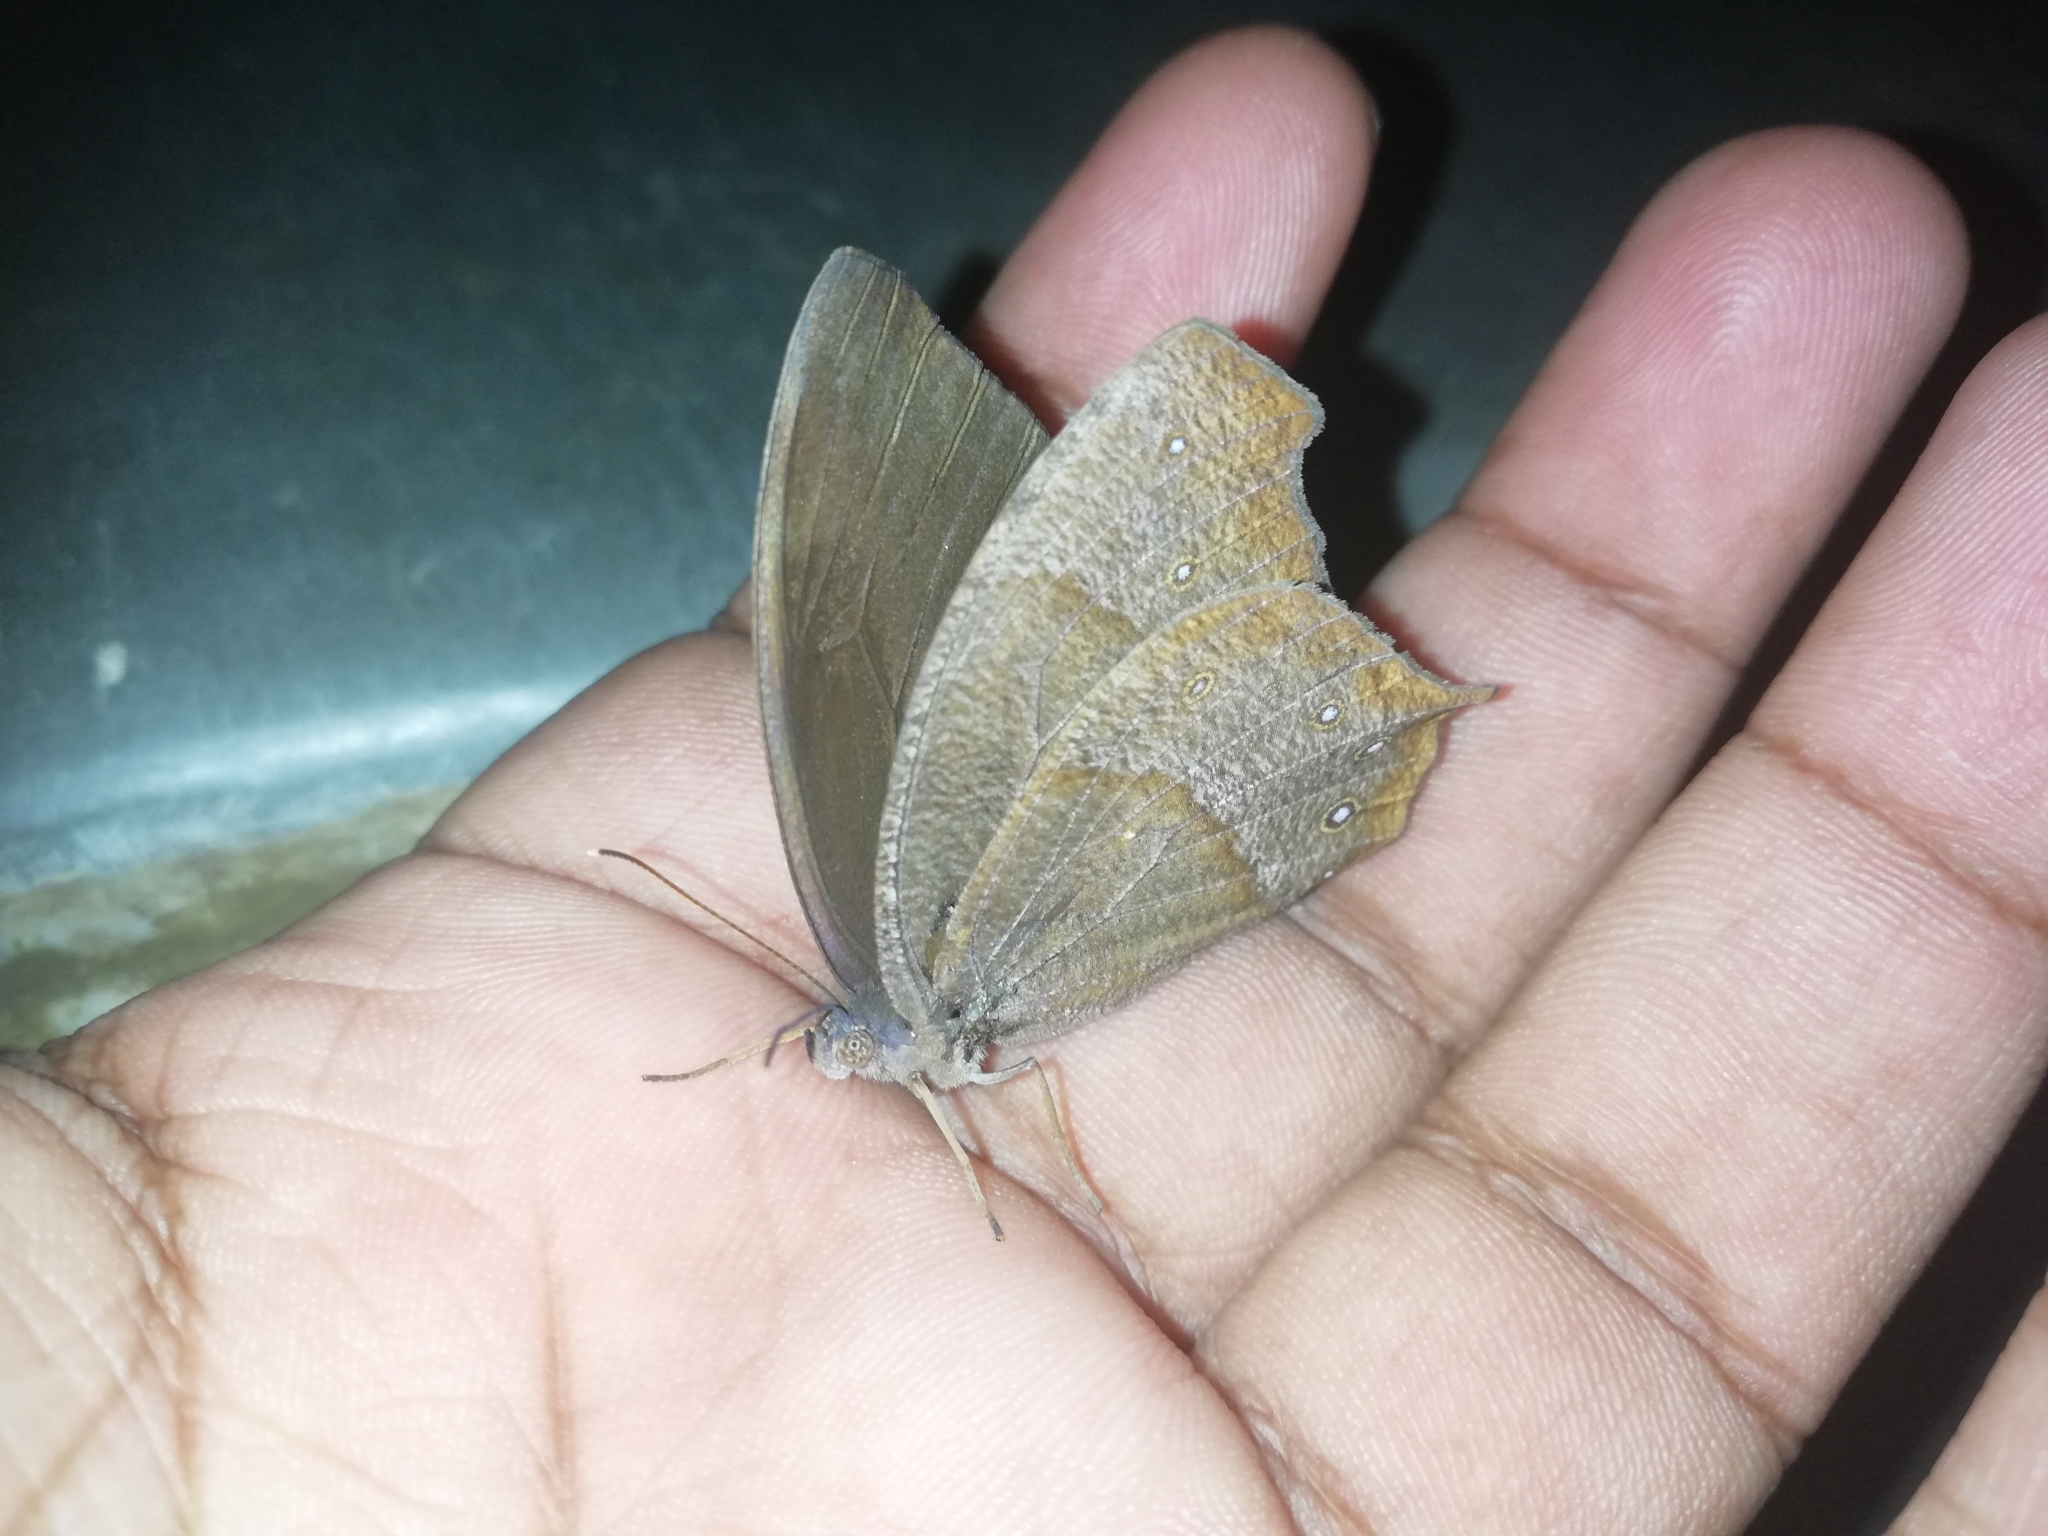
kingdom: Animalia
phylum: Arthropoda
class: Insecta
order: Lepidoptera
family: Nymphalidae
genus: Melanitis
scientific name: Melanitis phedima
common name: Dark evening brown
